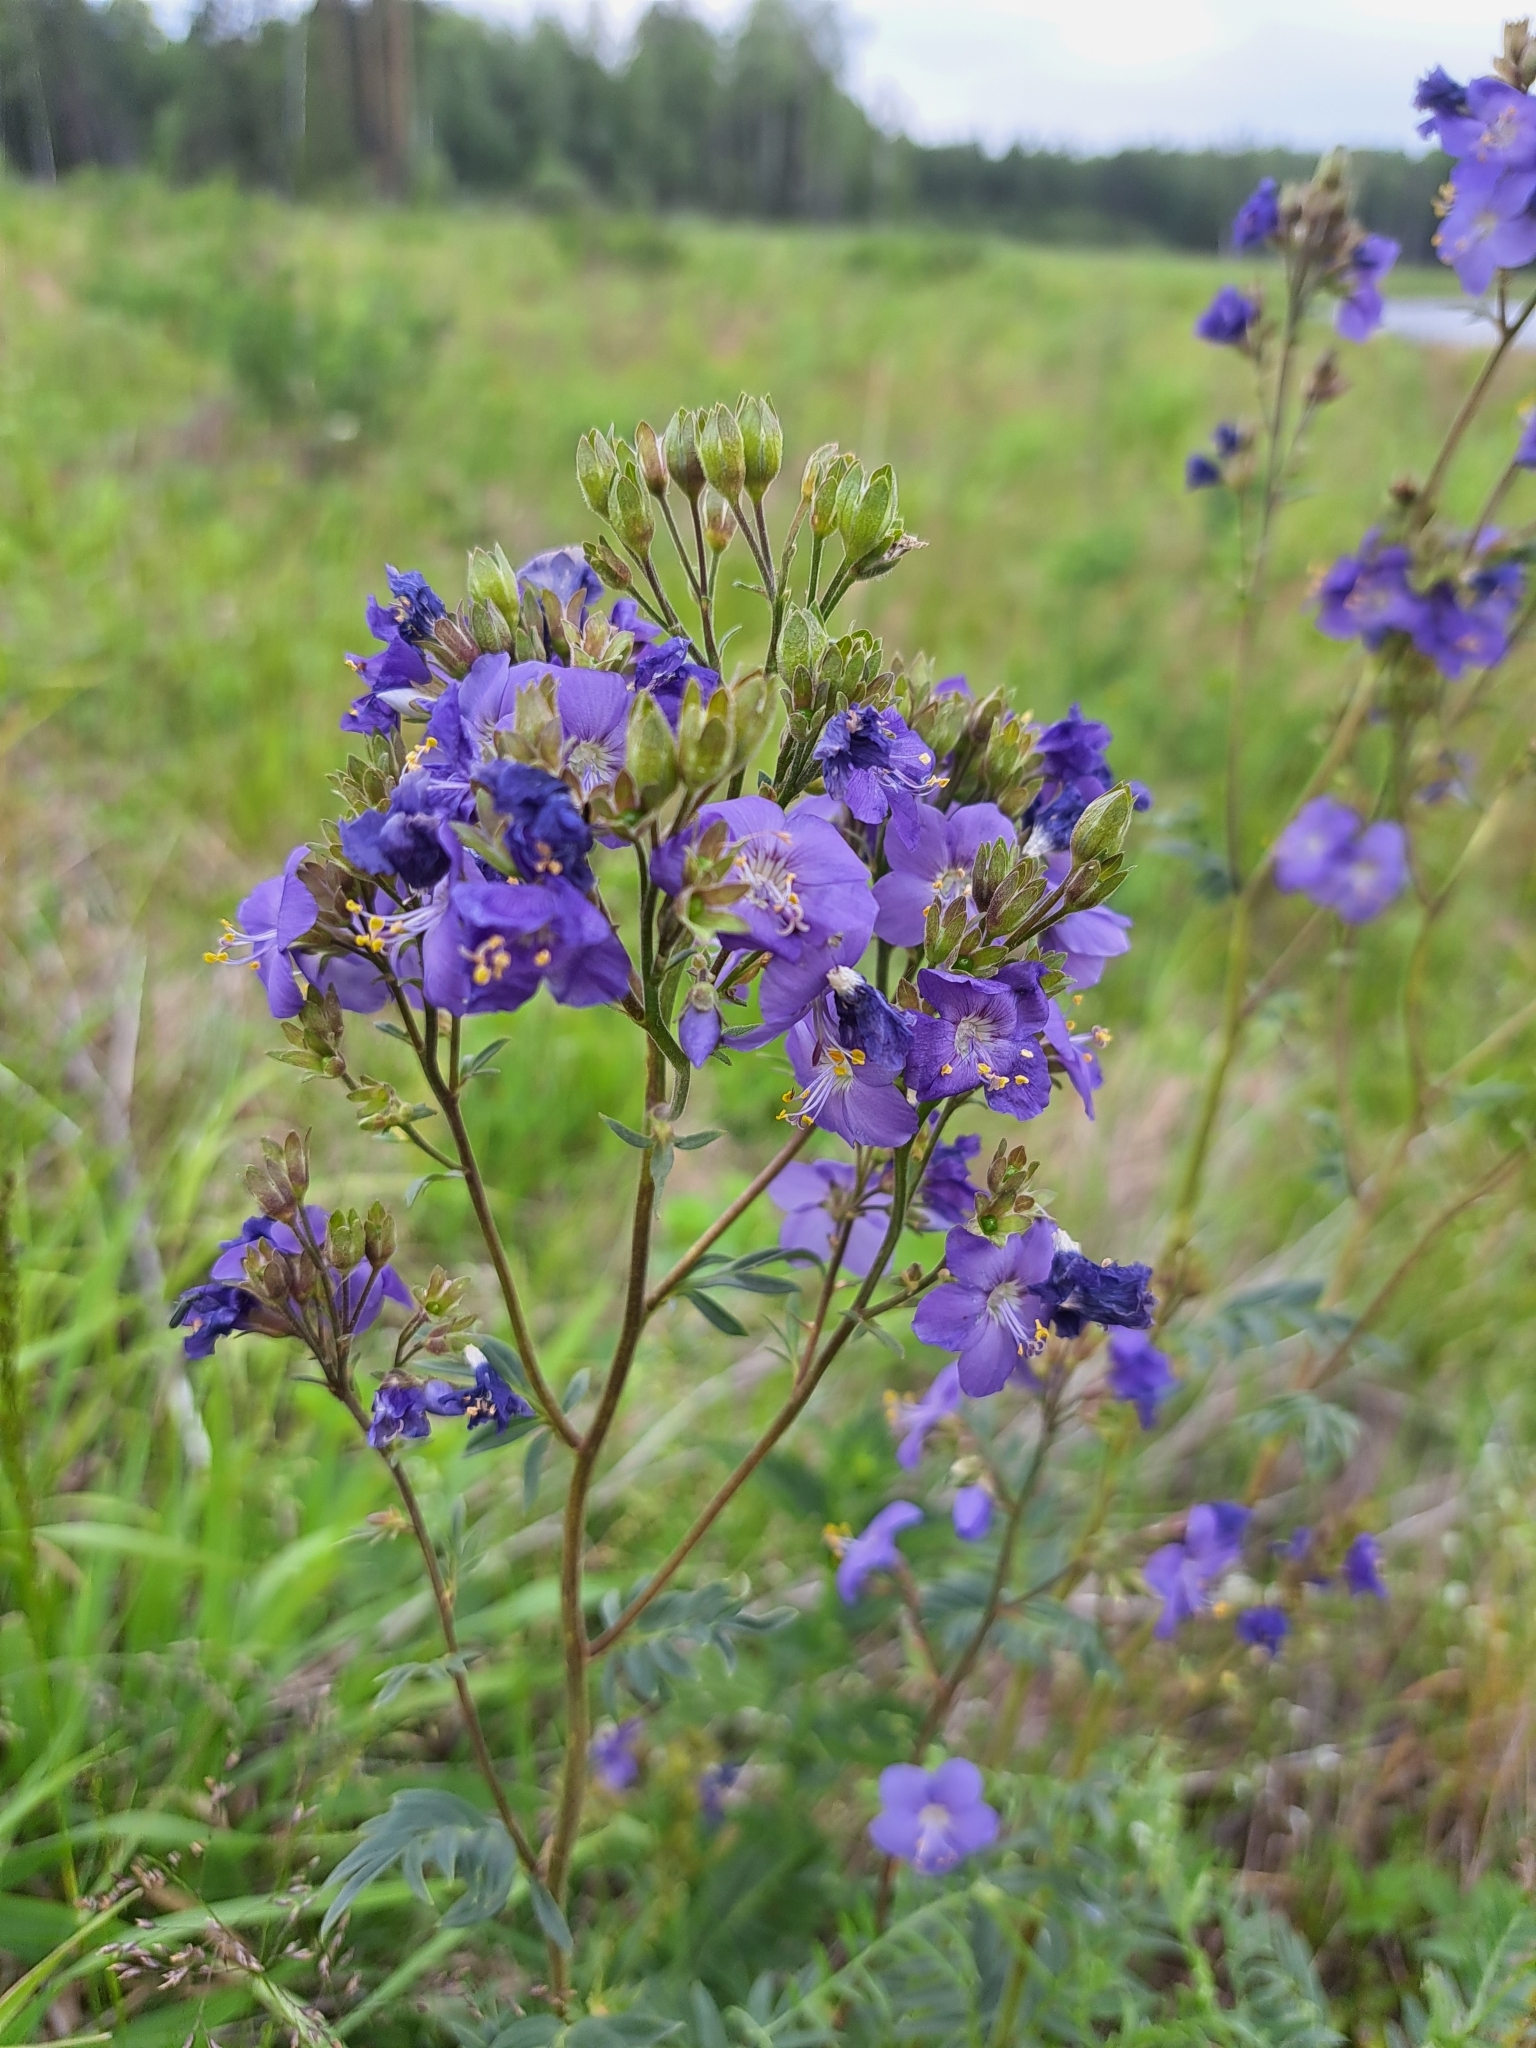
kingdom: Plantae
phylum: Tracheophyta
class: Magnoliopsida
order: Ericales
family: Polemoniaceae
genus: Polemonium
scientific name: Polemonium caeruleum
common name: Jacob's-ladder
